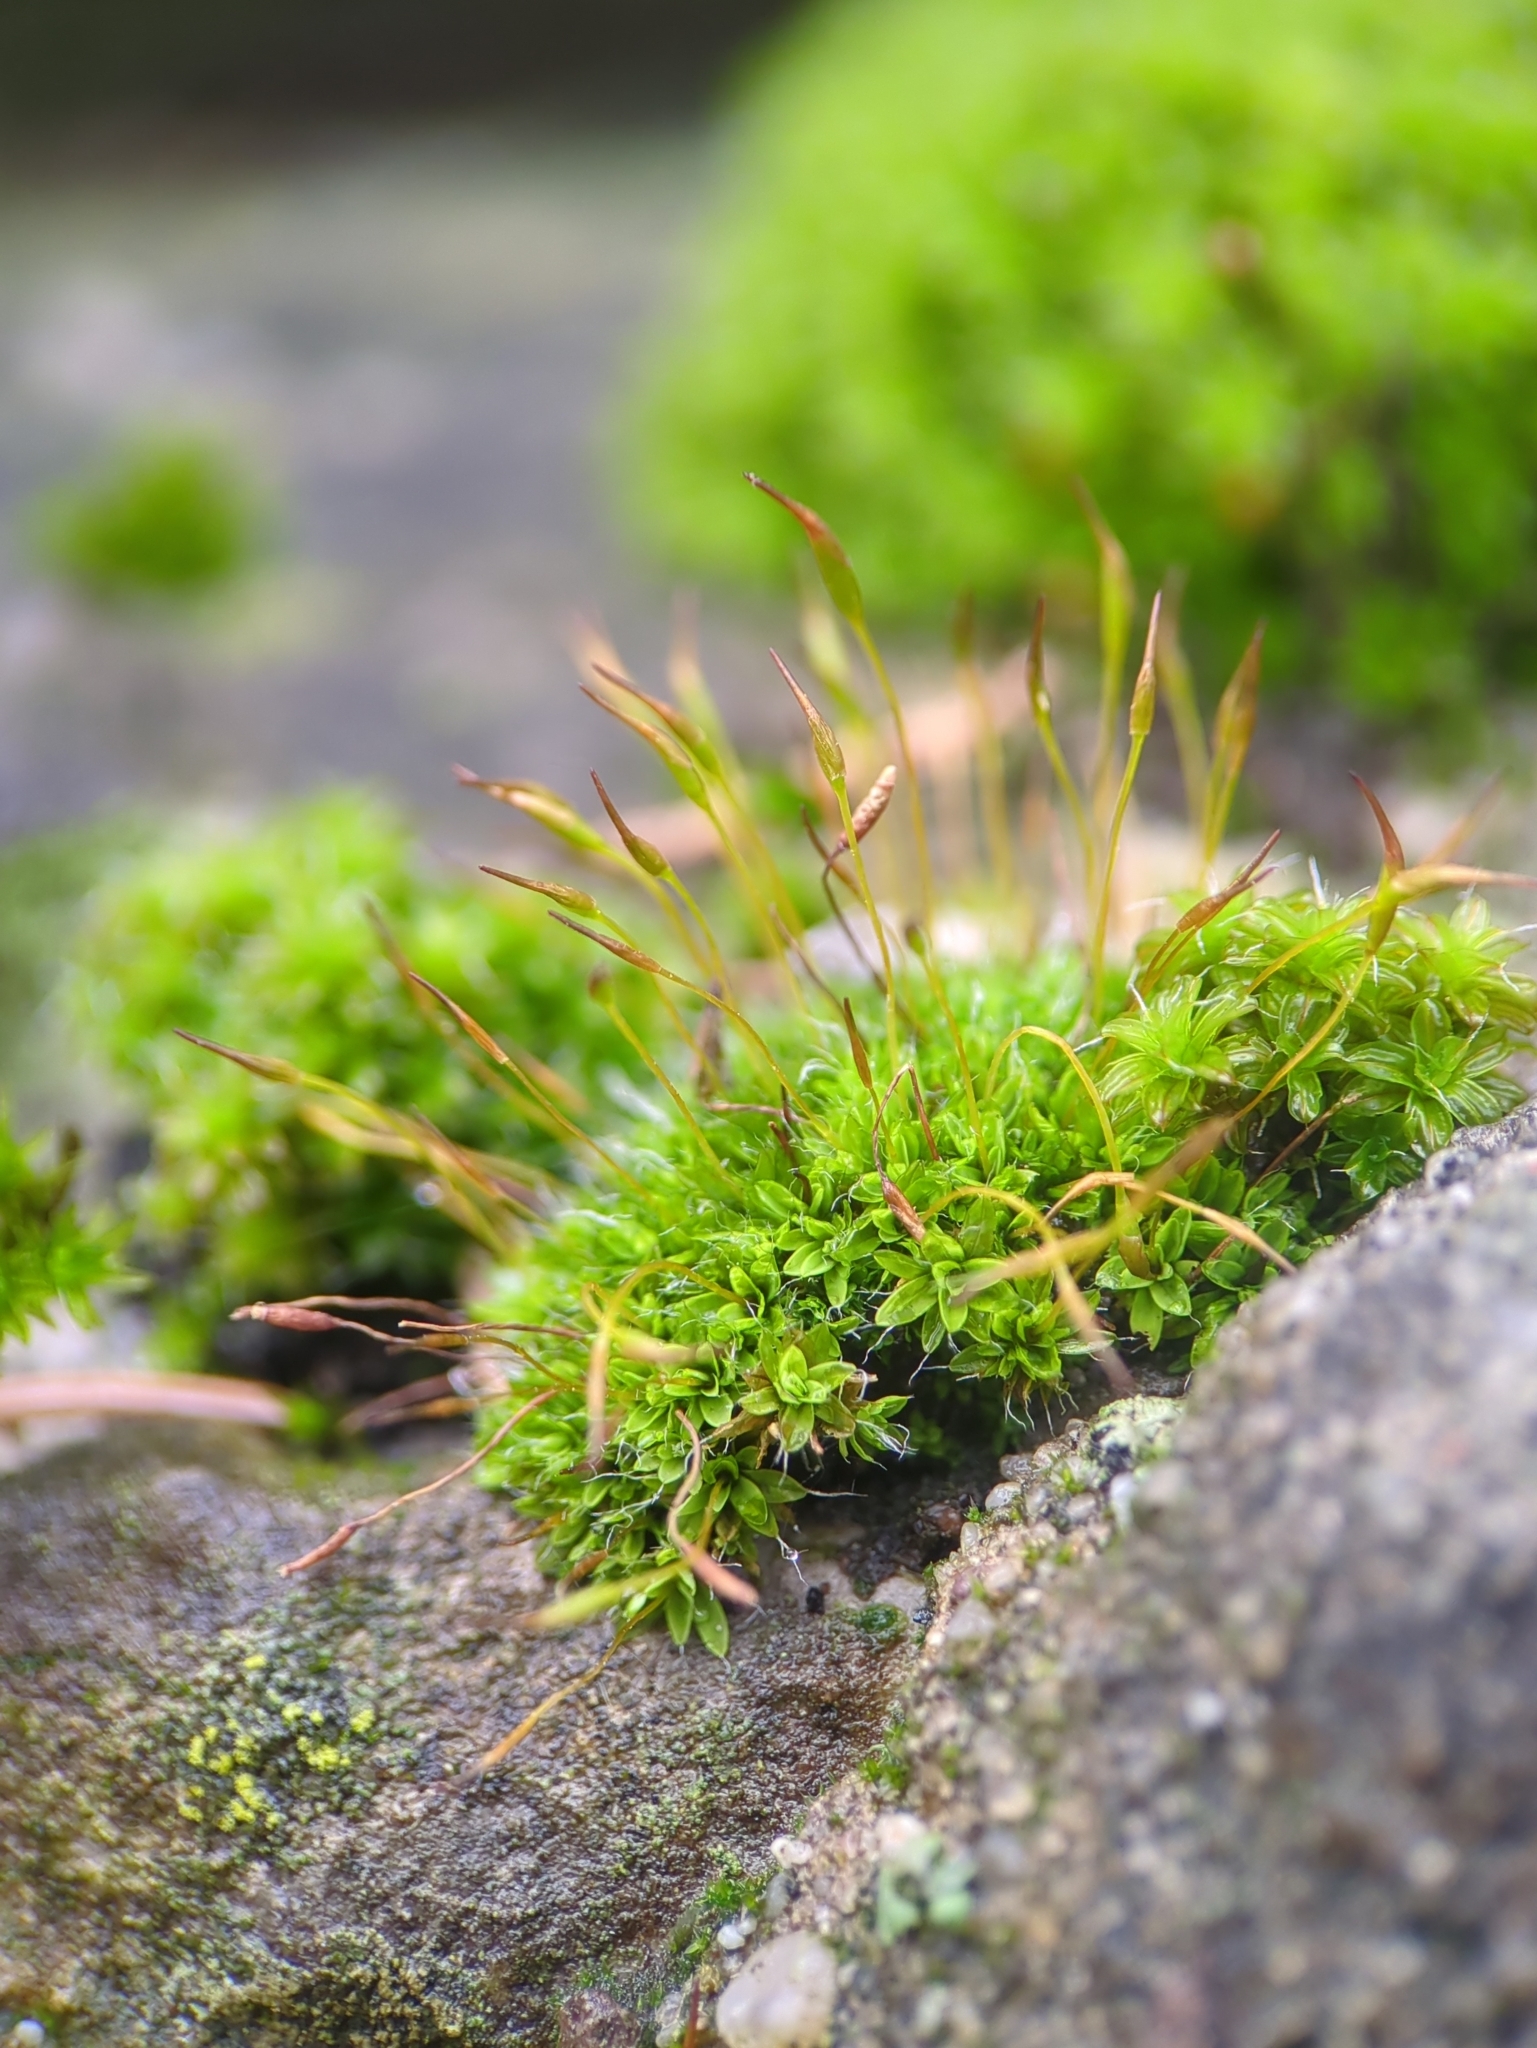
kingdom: Plantae
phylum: Bryophyta
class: Bryopsida
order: Pottiales
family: Pottiaceae
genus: Tortula
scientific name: Tortula muralis
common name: Wall screw-moss
